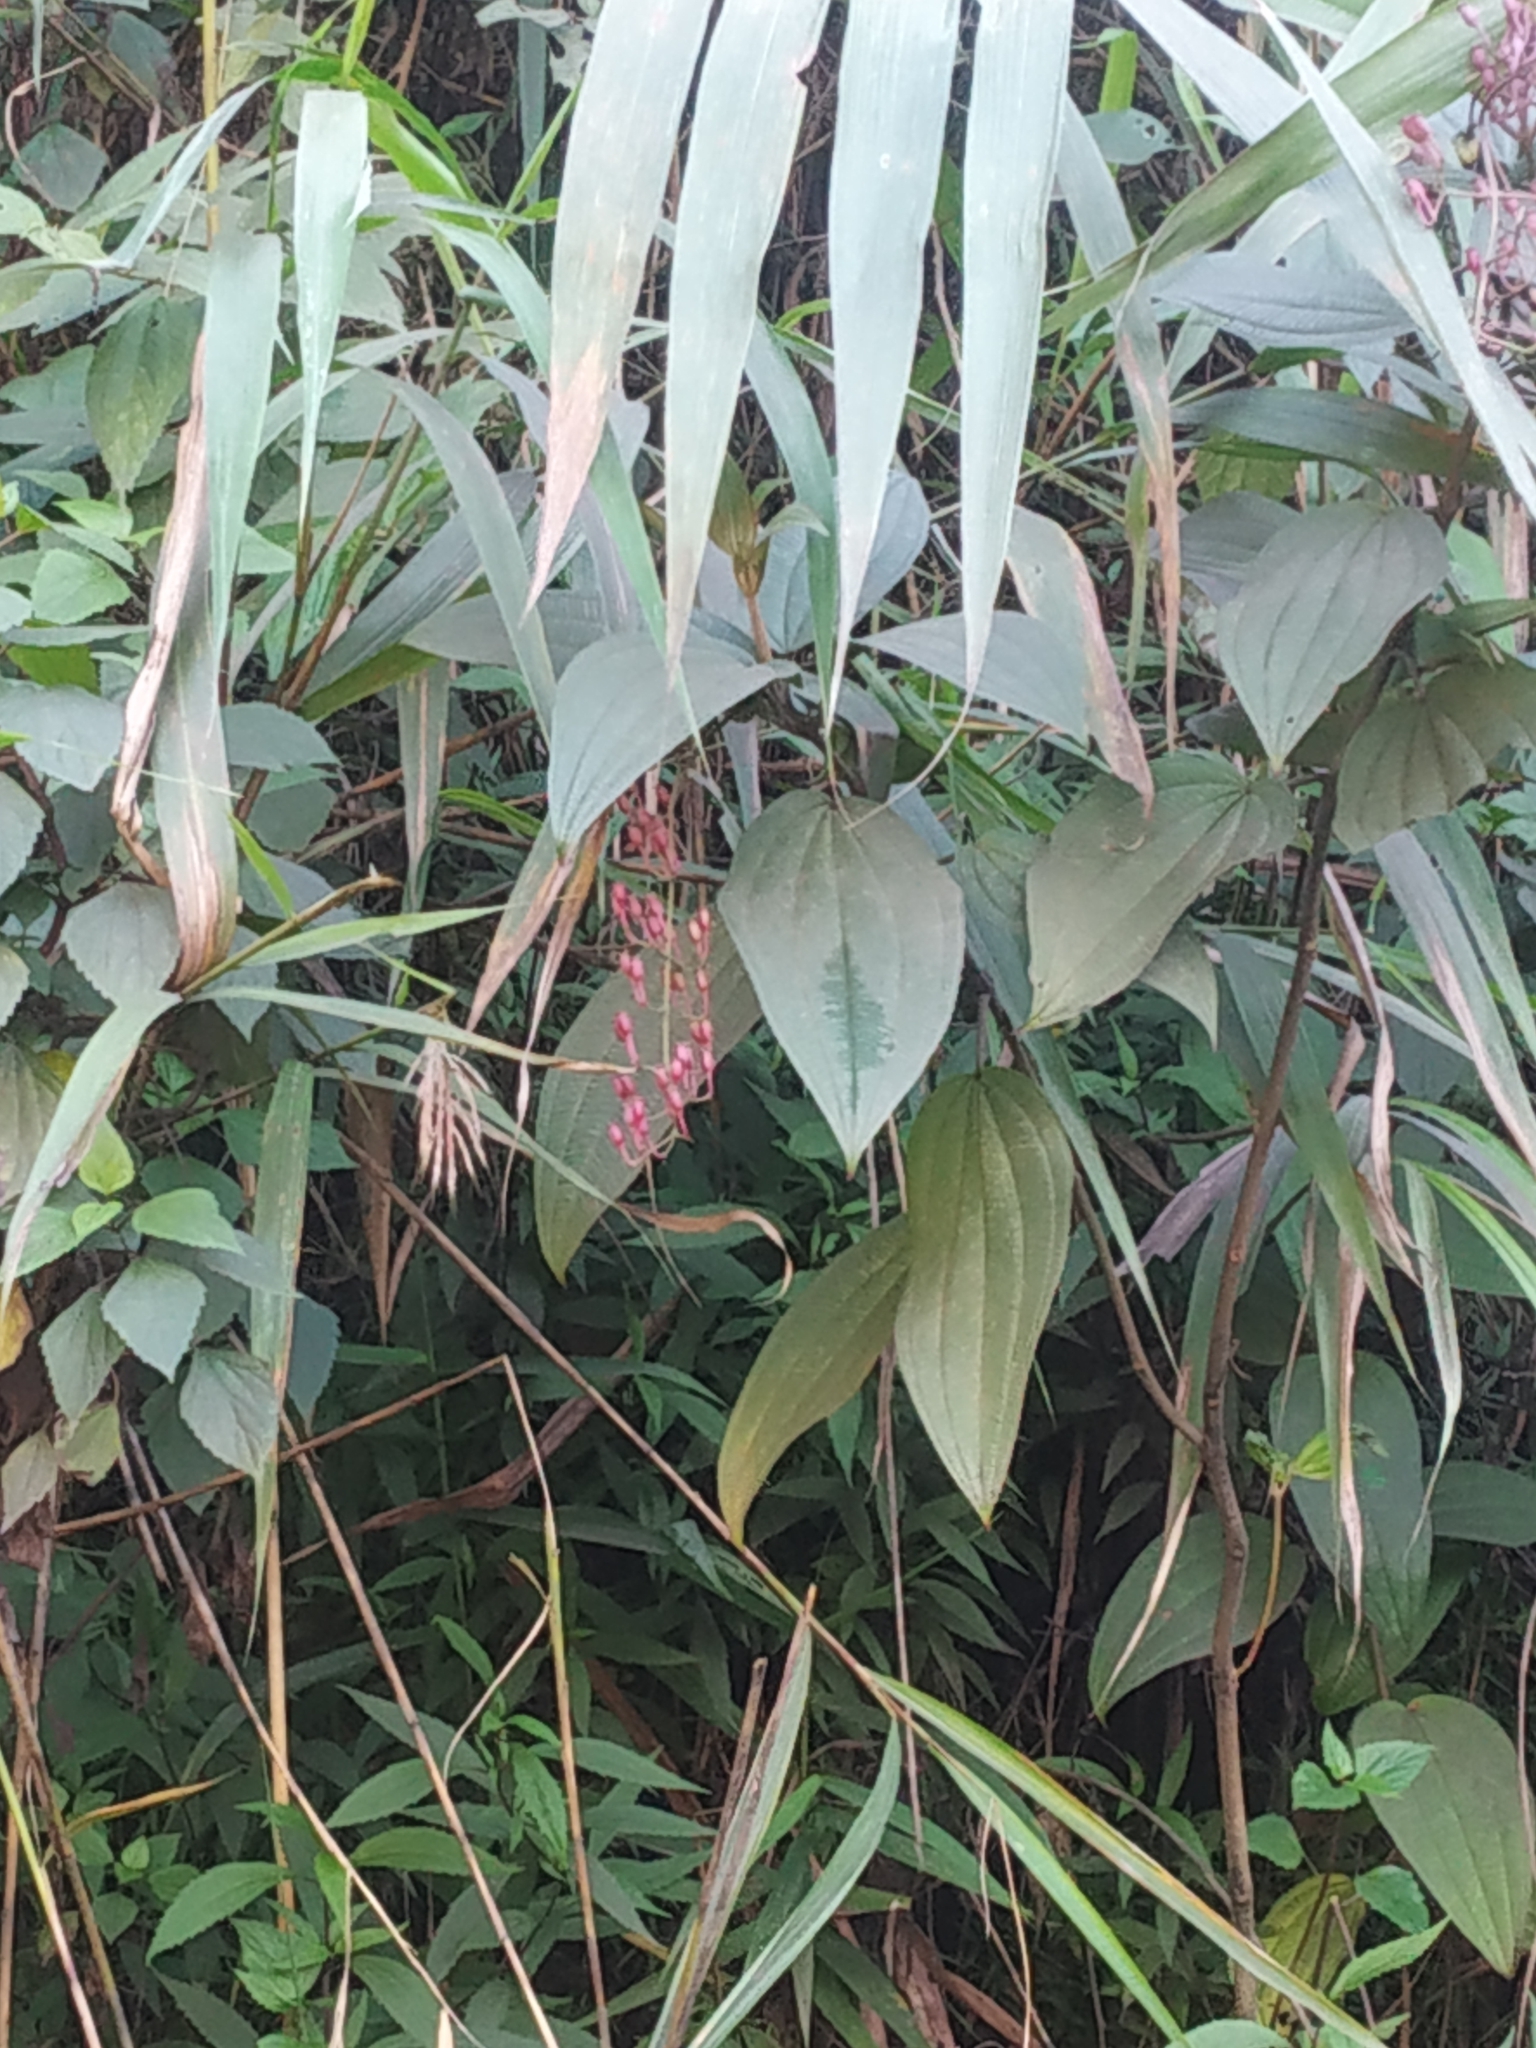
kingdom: Plantae
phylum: Tracheophyta
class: Magnoliopsida
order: Myrtales
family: Melastomataceae
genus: Oxyspora
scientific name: Oxyspora paniculata
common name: Bristletips
